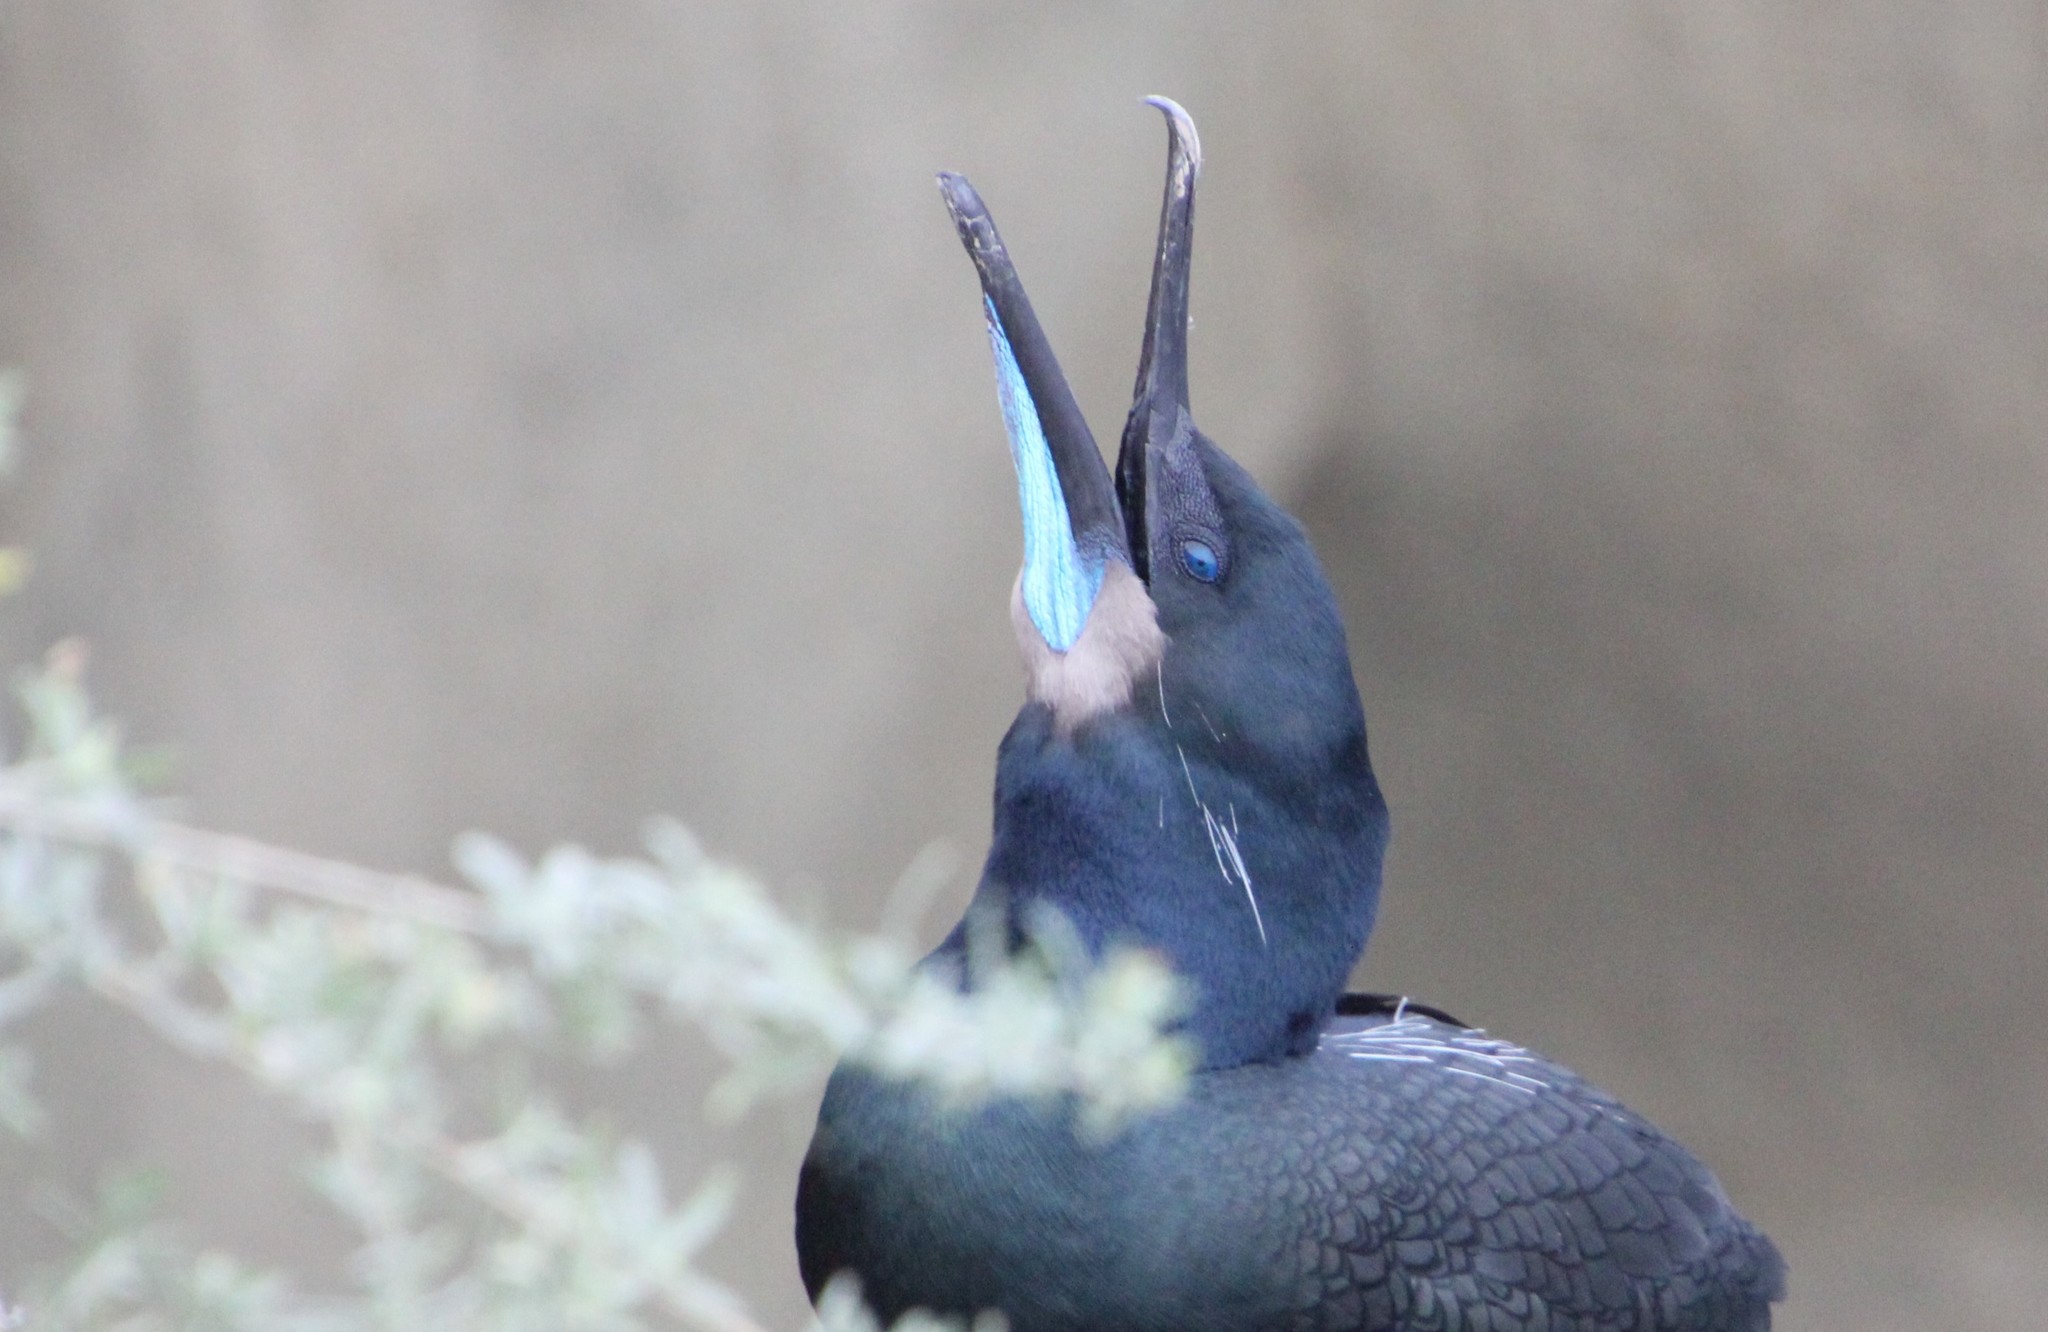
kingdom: Animalia
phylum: Chordata
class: Aves
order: Suliformes
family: Phalacrocoracidae
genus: Urile
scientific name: Urile penicillatus
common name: Brandt's cormorant
